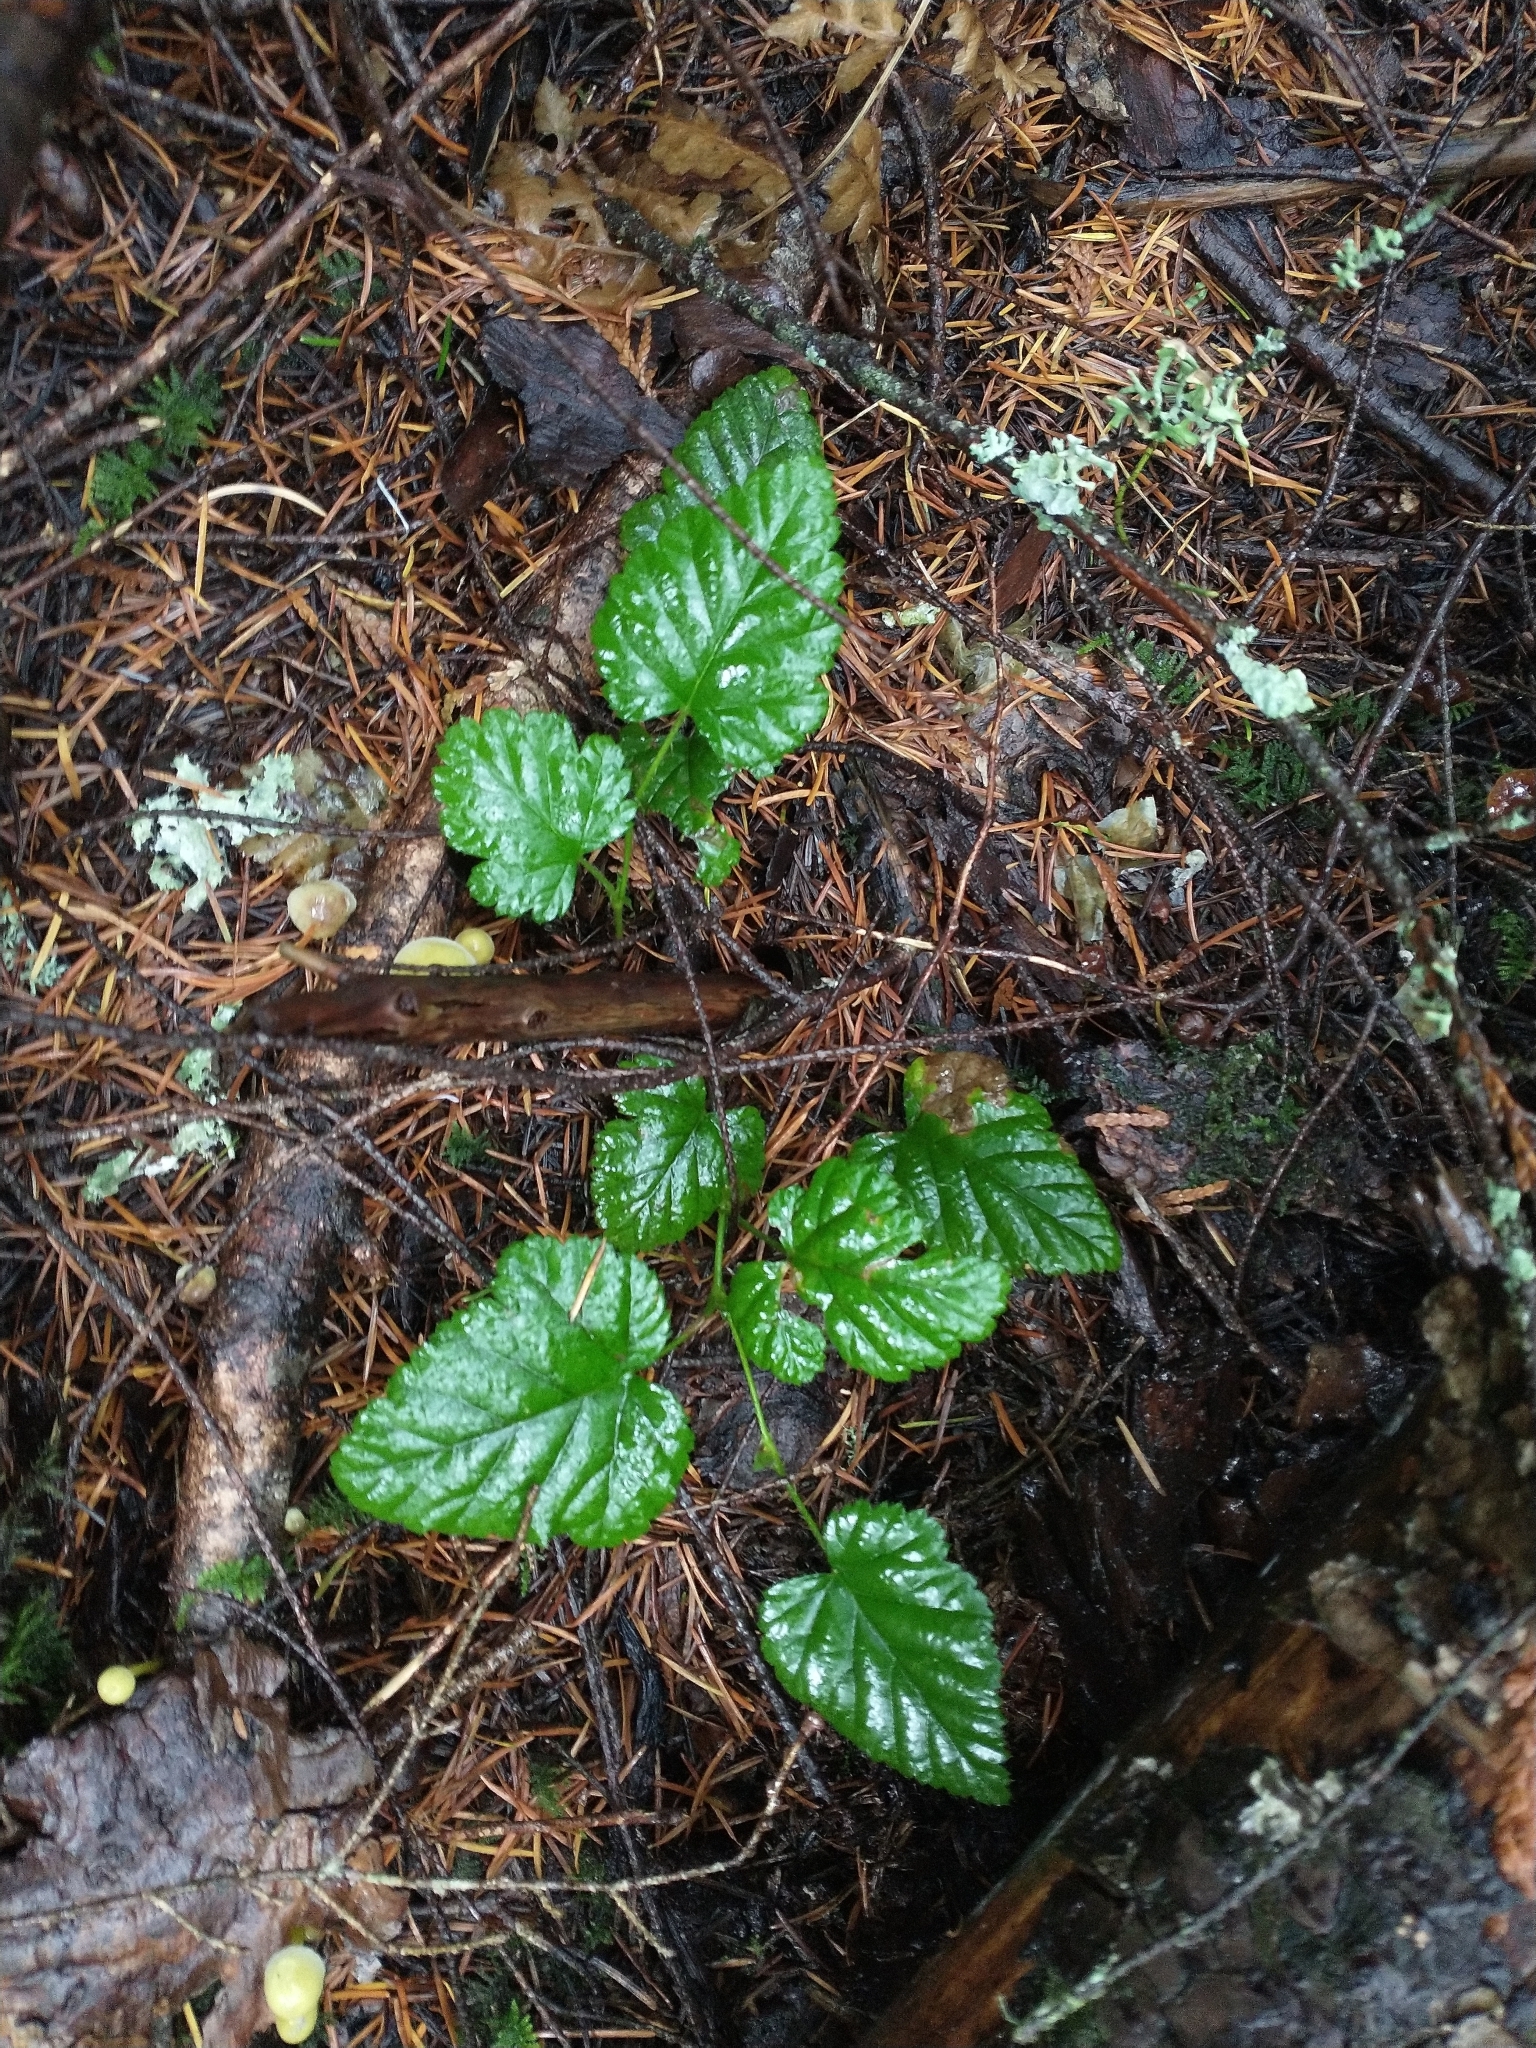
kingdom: Plantae
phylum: Tracheophyta
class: Magnoliopsida
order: Rosales
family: Rosaceae
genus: Rubus
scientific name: Rubus nivalis
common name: Dwarf snow bramble
